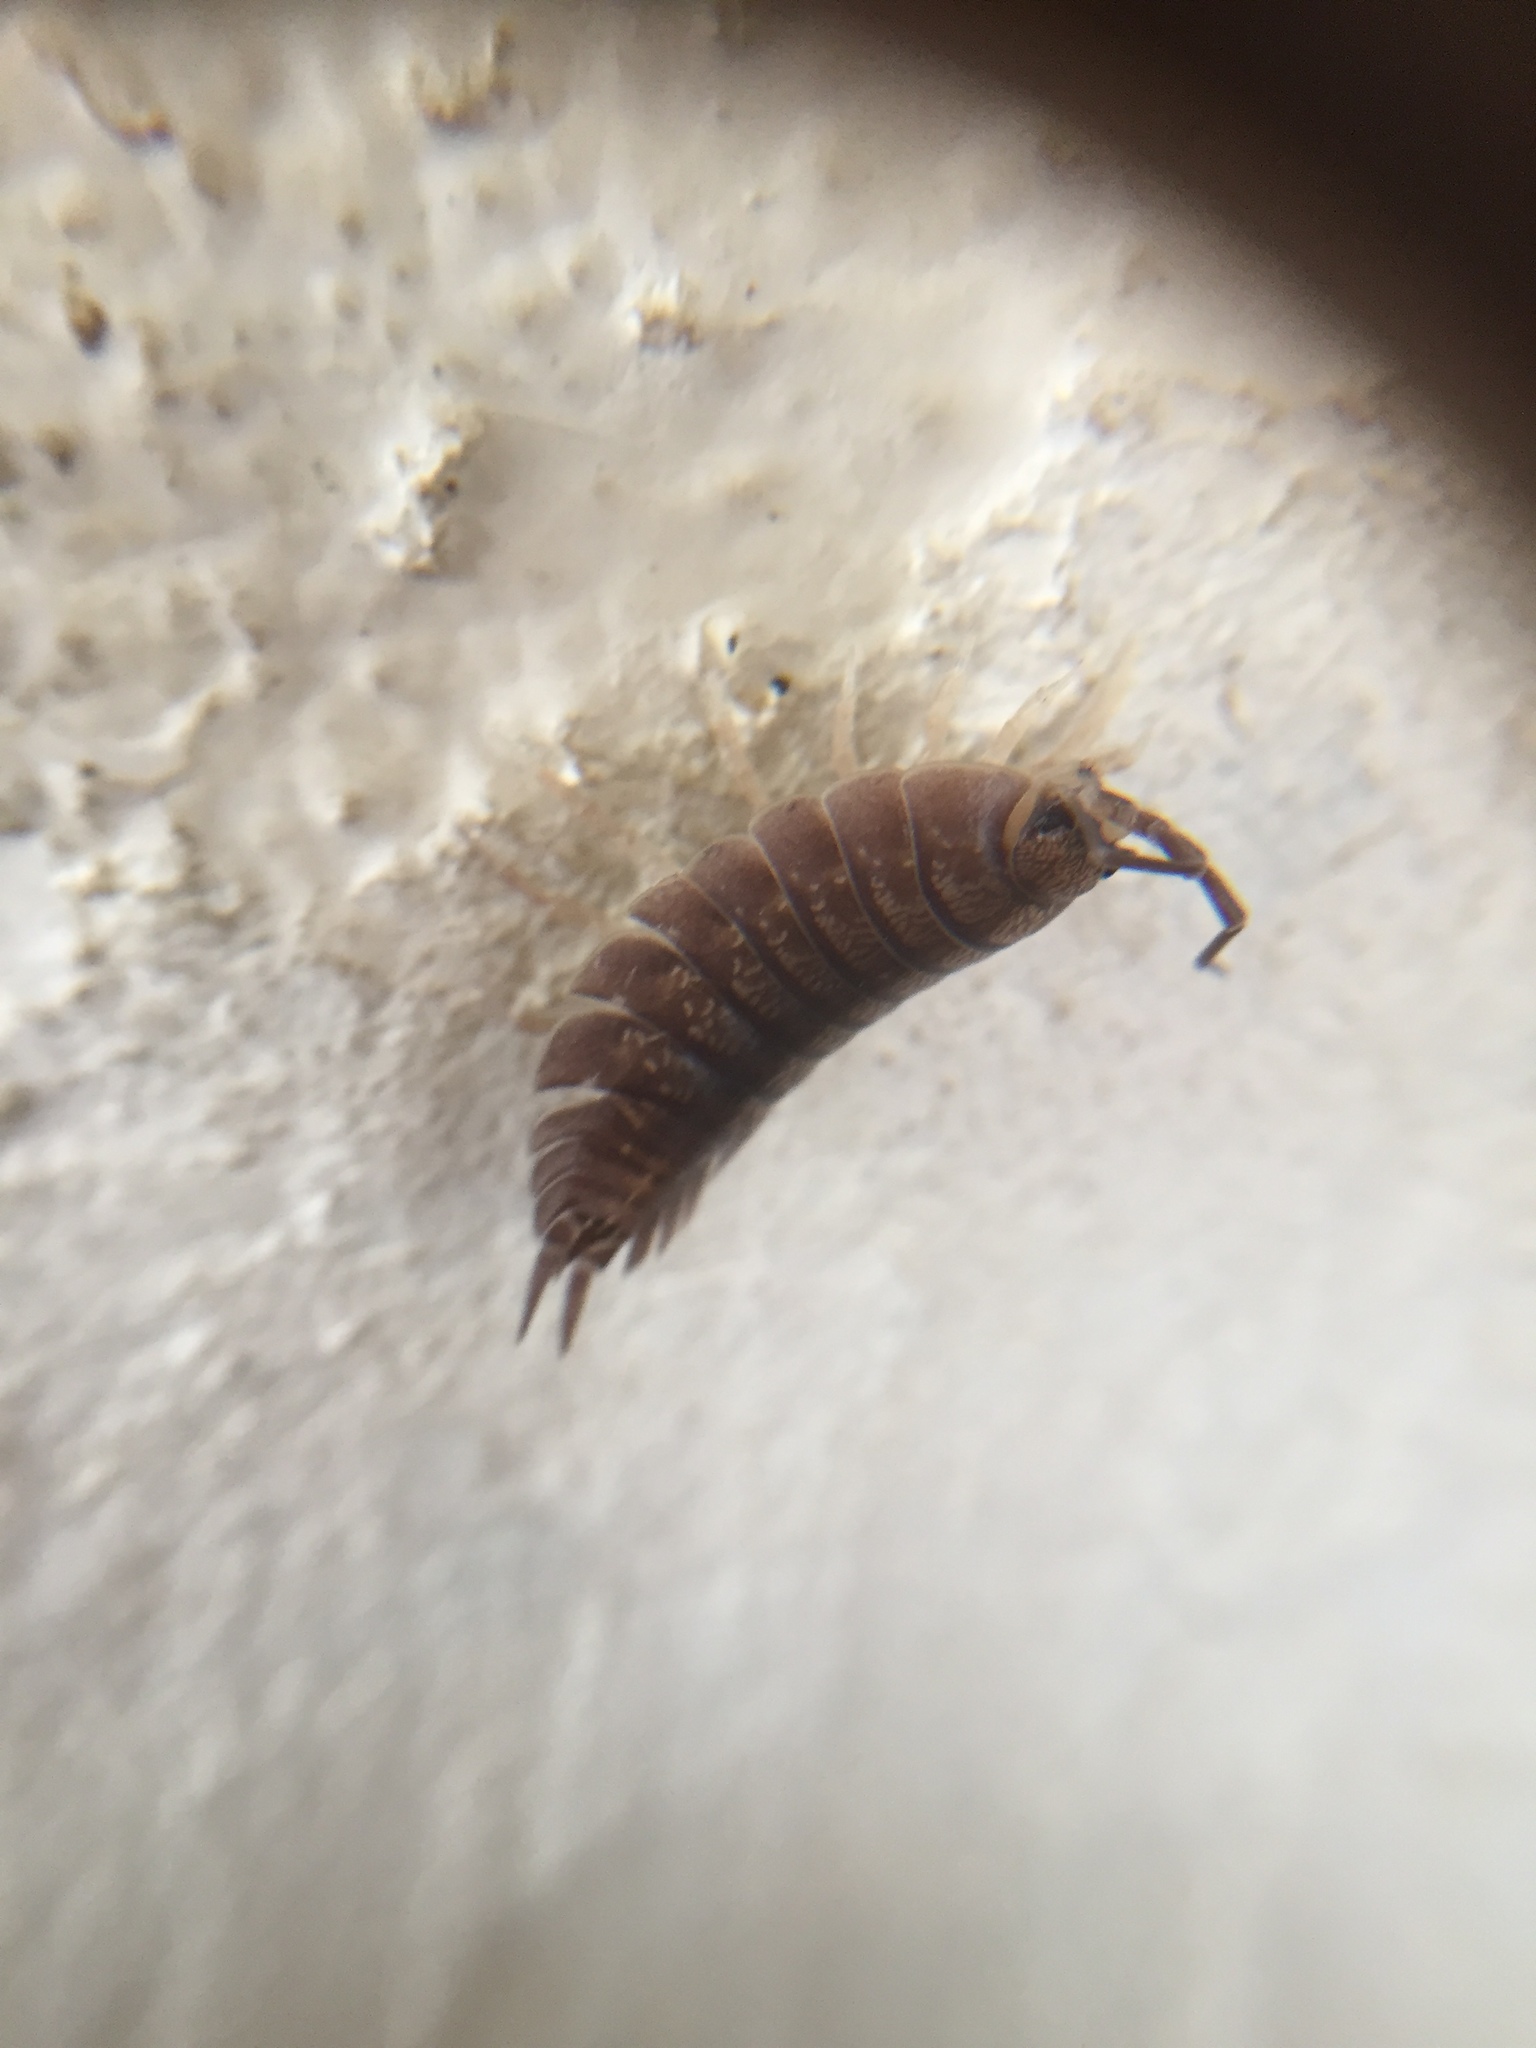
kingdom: Animalia
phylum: Arthropoda
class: Malacostraca
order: Isopoda
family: Porcellionidae
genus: Porcellio
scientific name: Porcellio laevis
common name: Swift woodlouse
